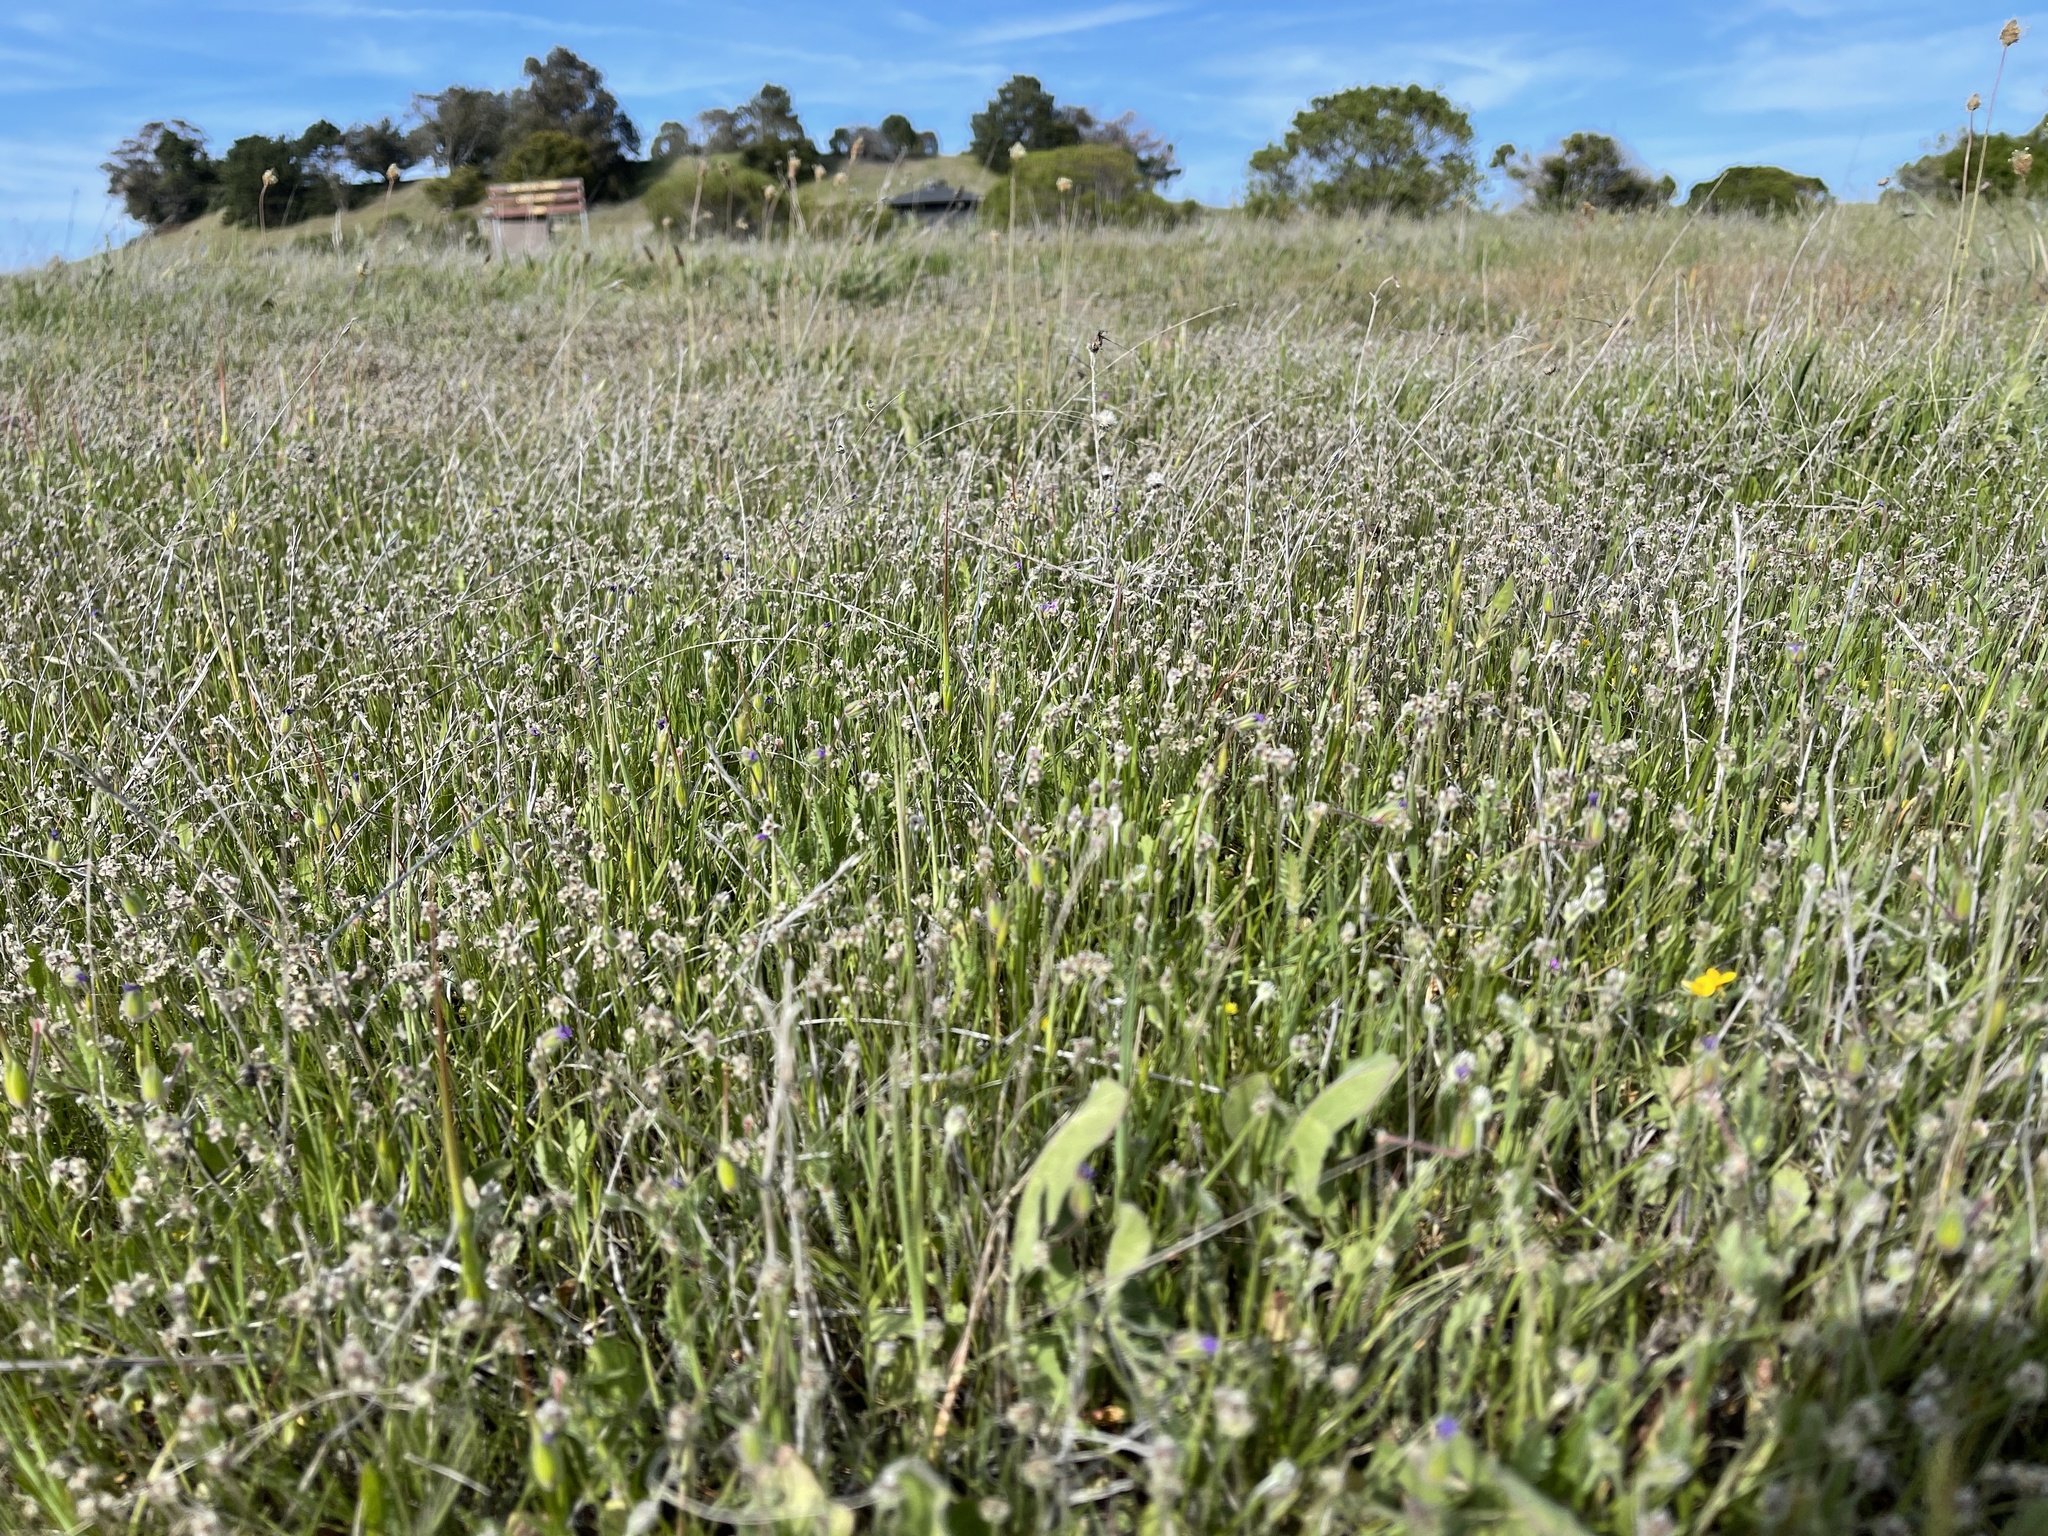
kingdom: Plantae
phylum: Tracheophyta
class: Magnoliopsida
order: Lamiales
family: Plantaginaceae
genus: Plantago
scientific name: Plantago erecta
